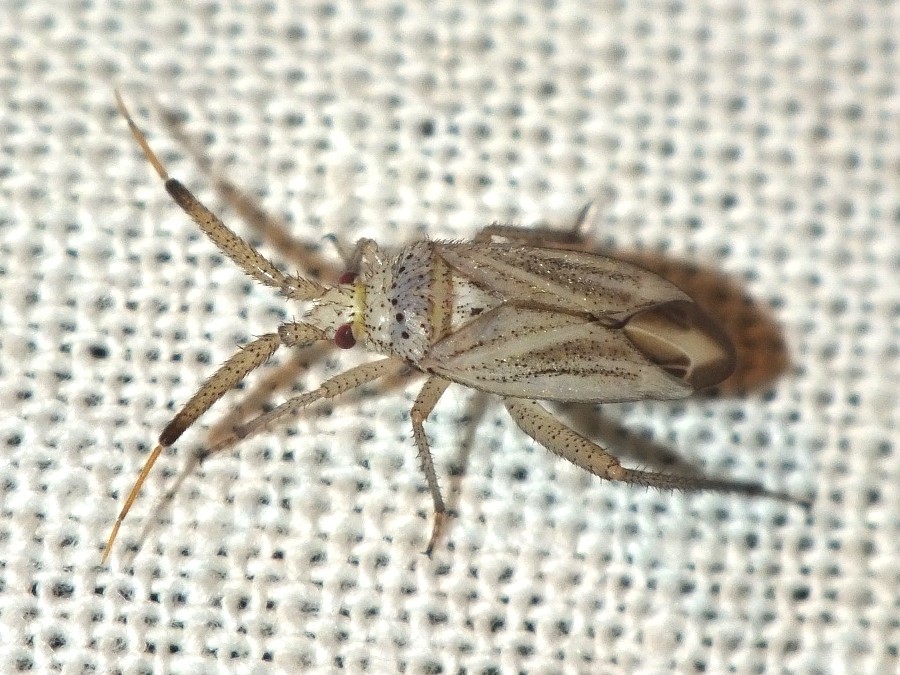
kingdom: Animalia
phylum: Arthropoda
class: Insecta
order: Hemiptera
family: Miridae
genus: Oncotylus
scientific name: Oncotylus setulosus
